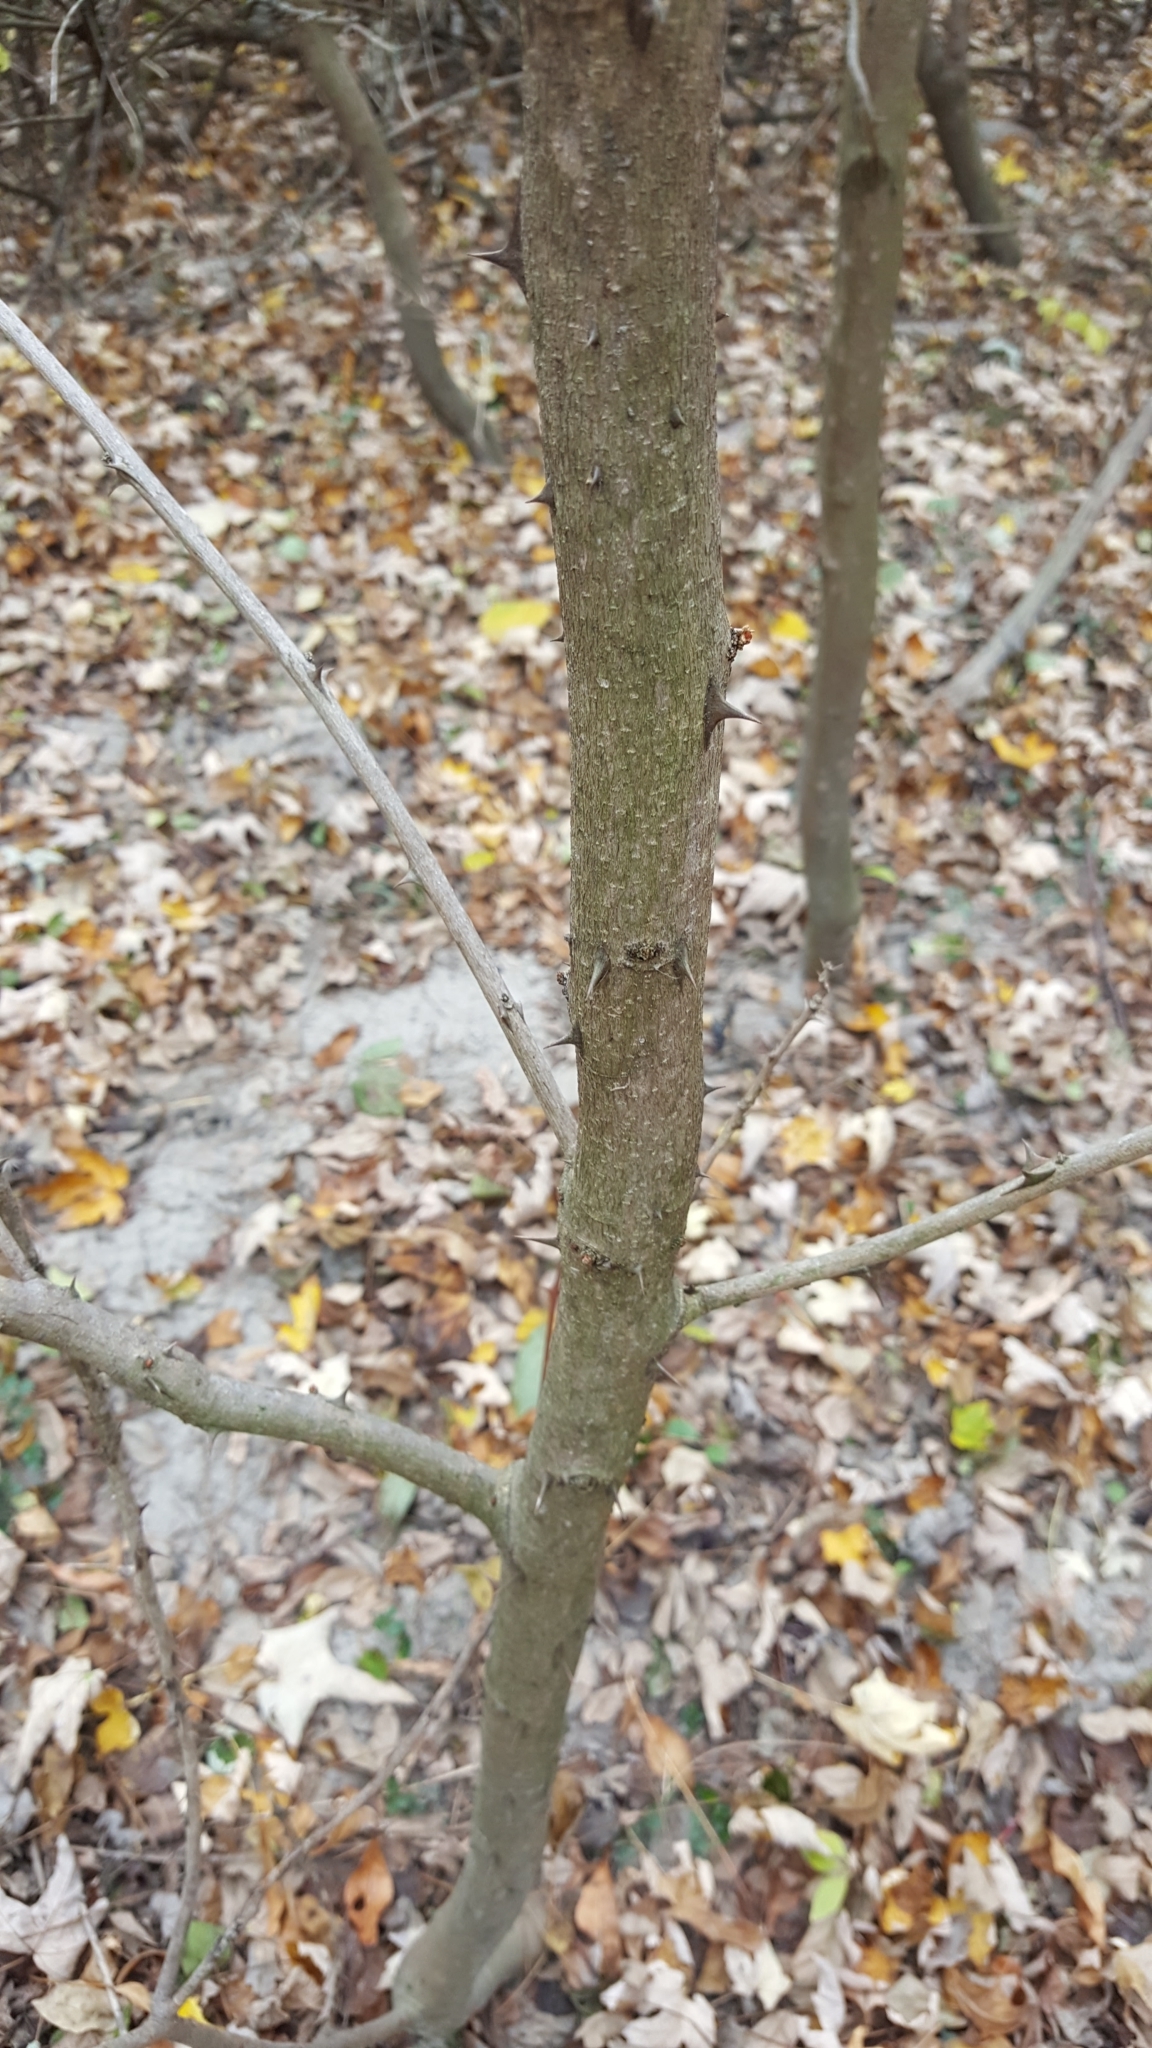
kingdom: Plantae
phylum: Tracheophyta
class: Magnoliopsida
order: Sapindales
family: Rutaceae
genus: Zanthoxylum
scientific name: Zanthoxylum americanum
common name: Northern prickly-ash
